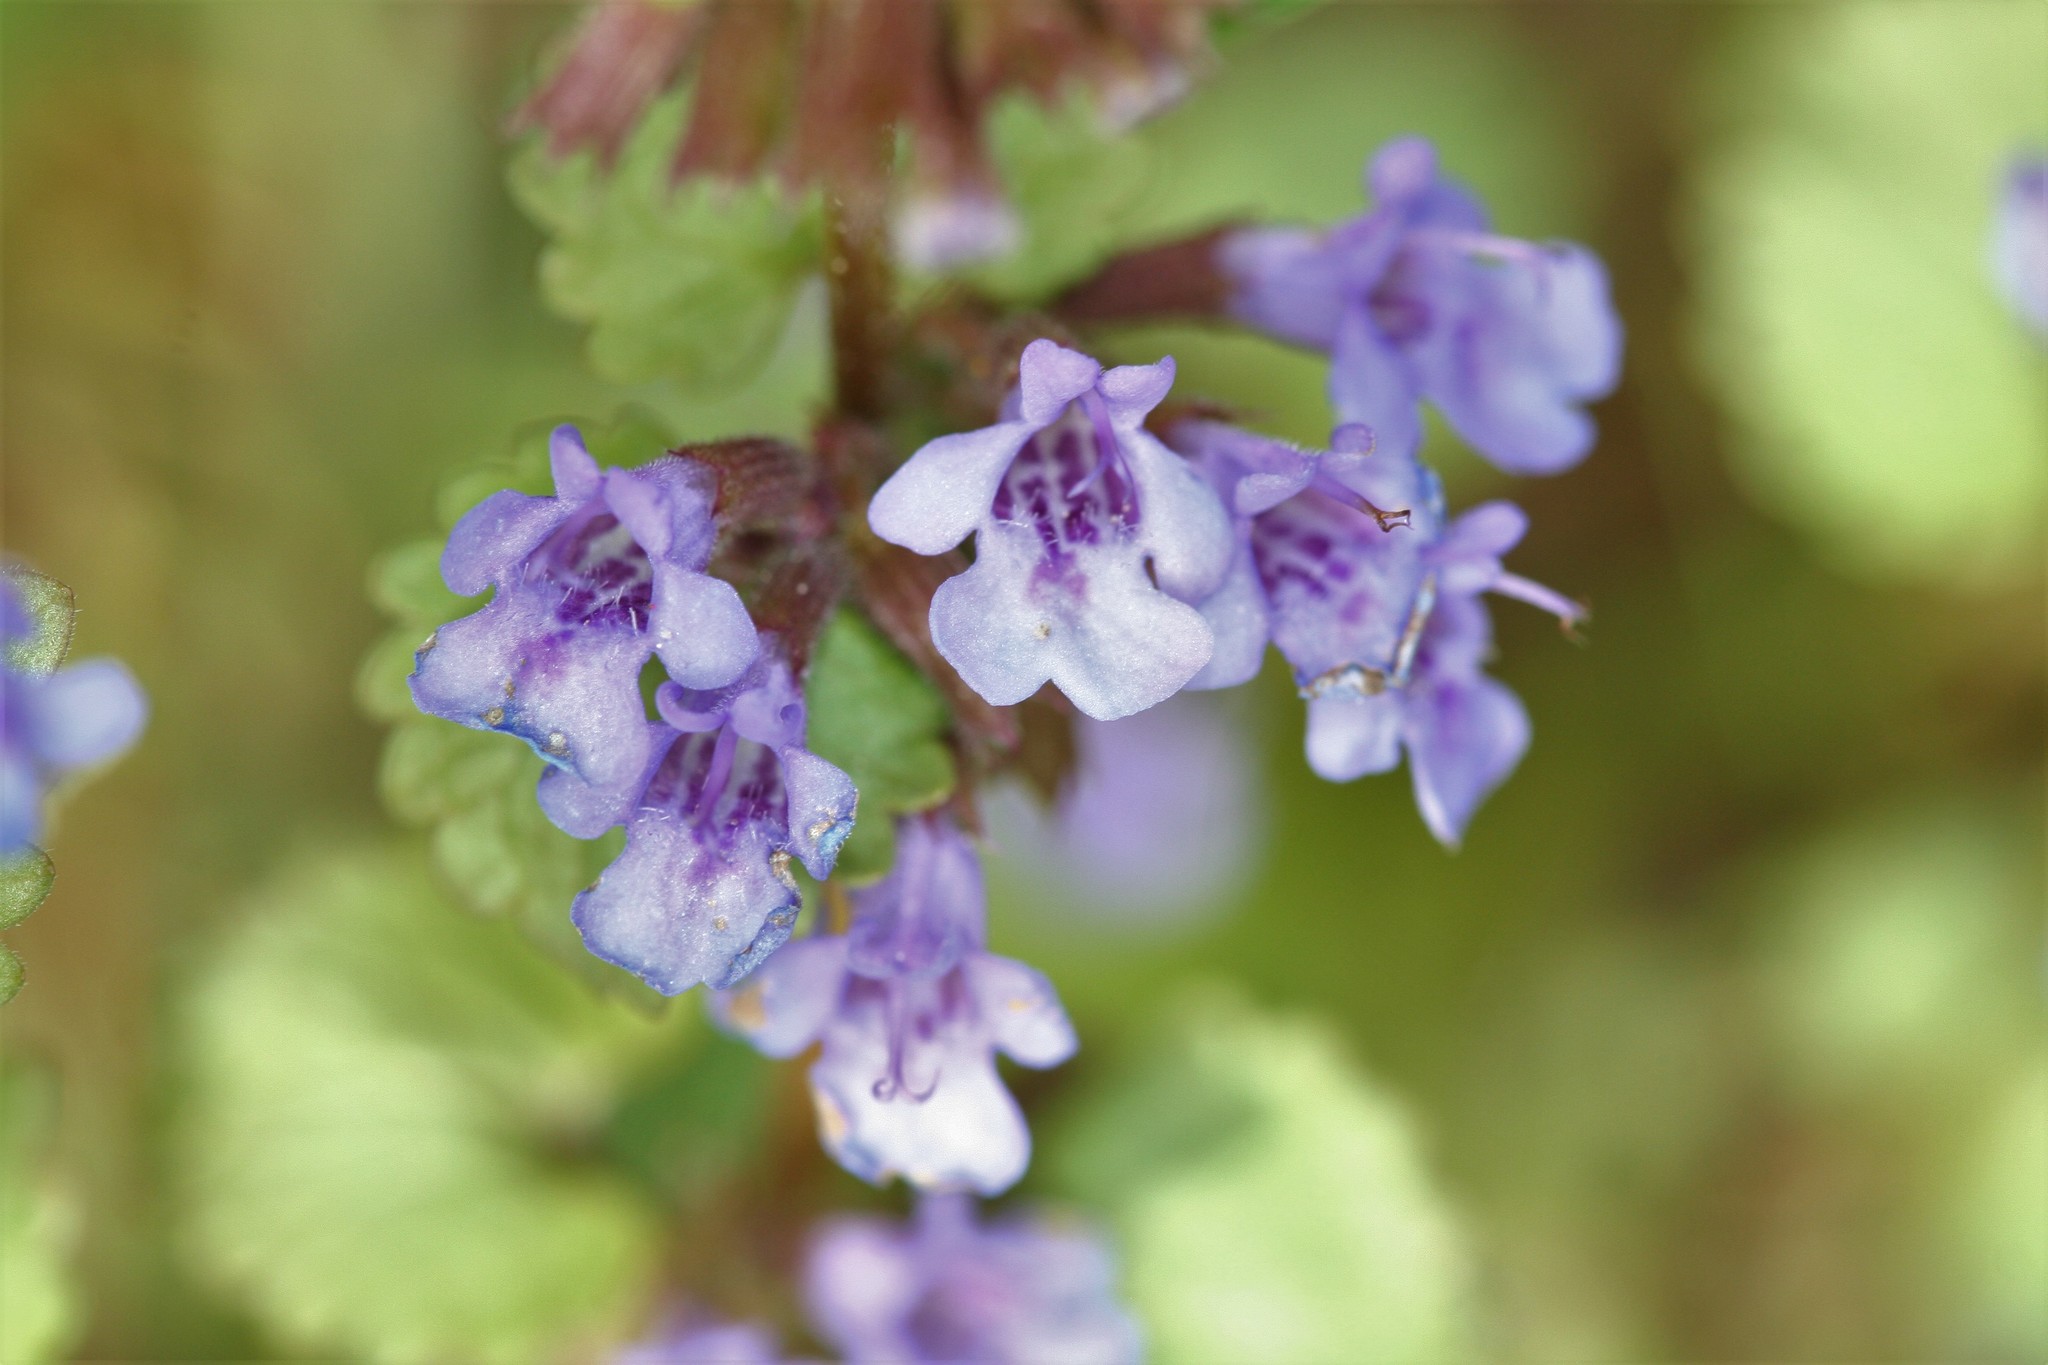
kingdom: Plantae
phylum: Tracheophyta
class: Magnoliopsida
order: Lamiales
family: Lamiaceae
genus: Glechoma
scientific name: Glechoma hederacea
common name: Ground ivy
